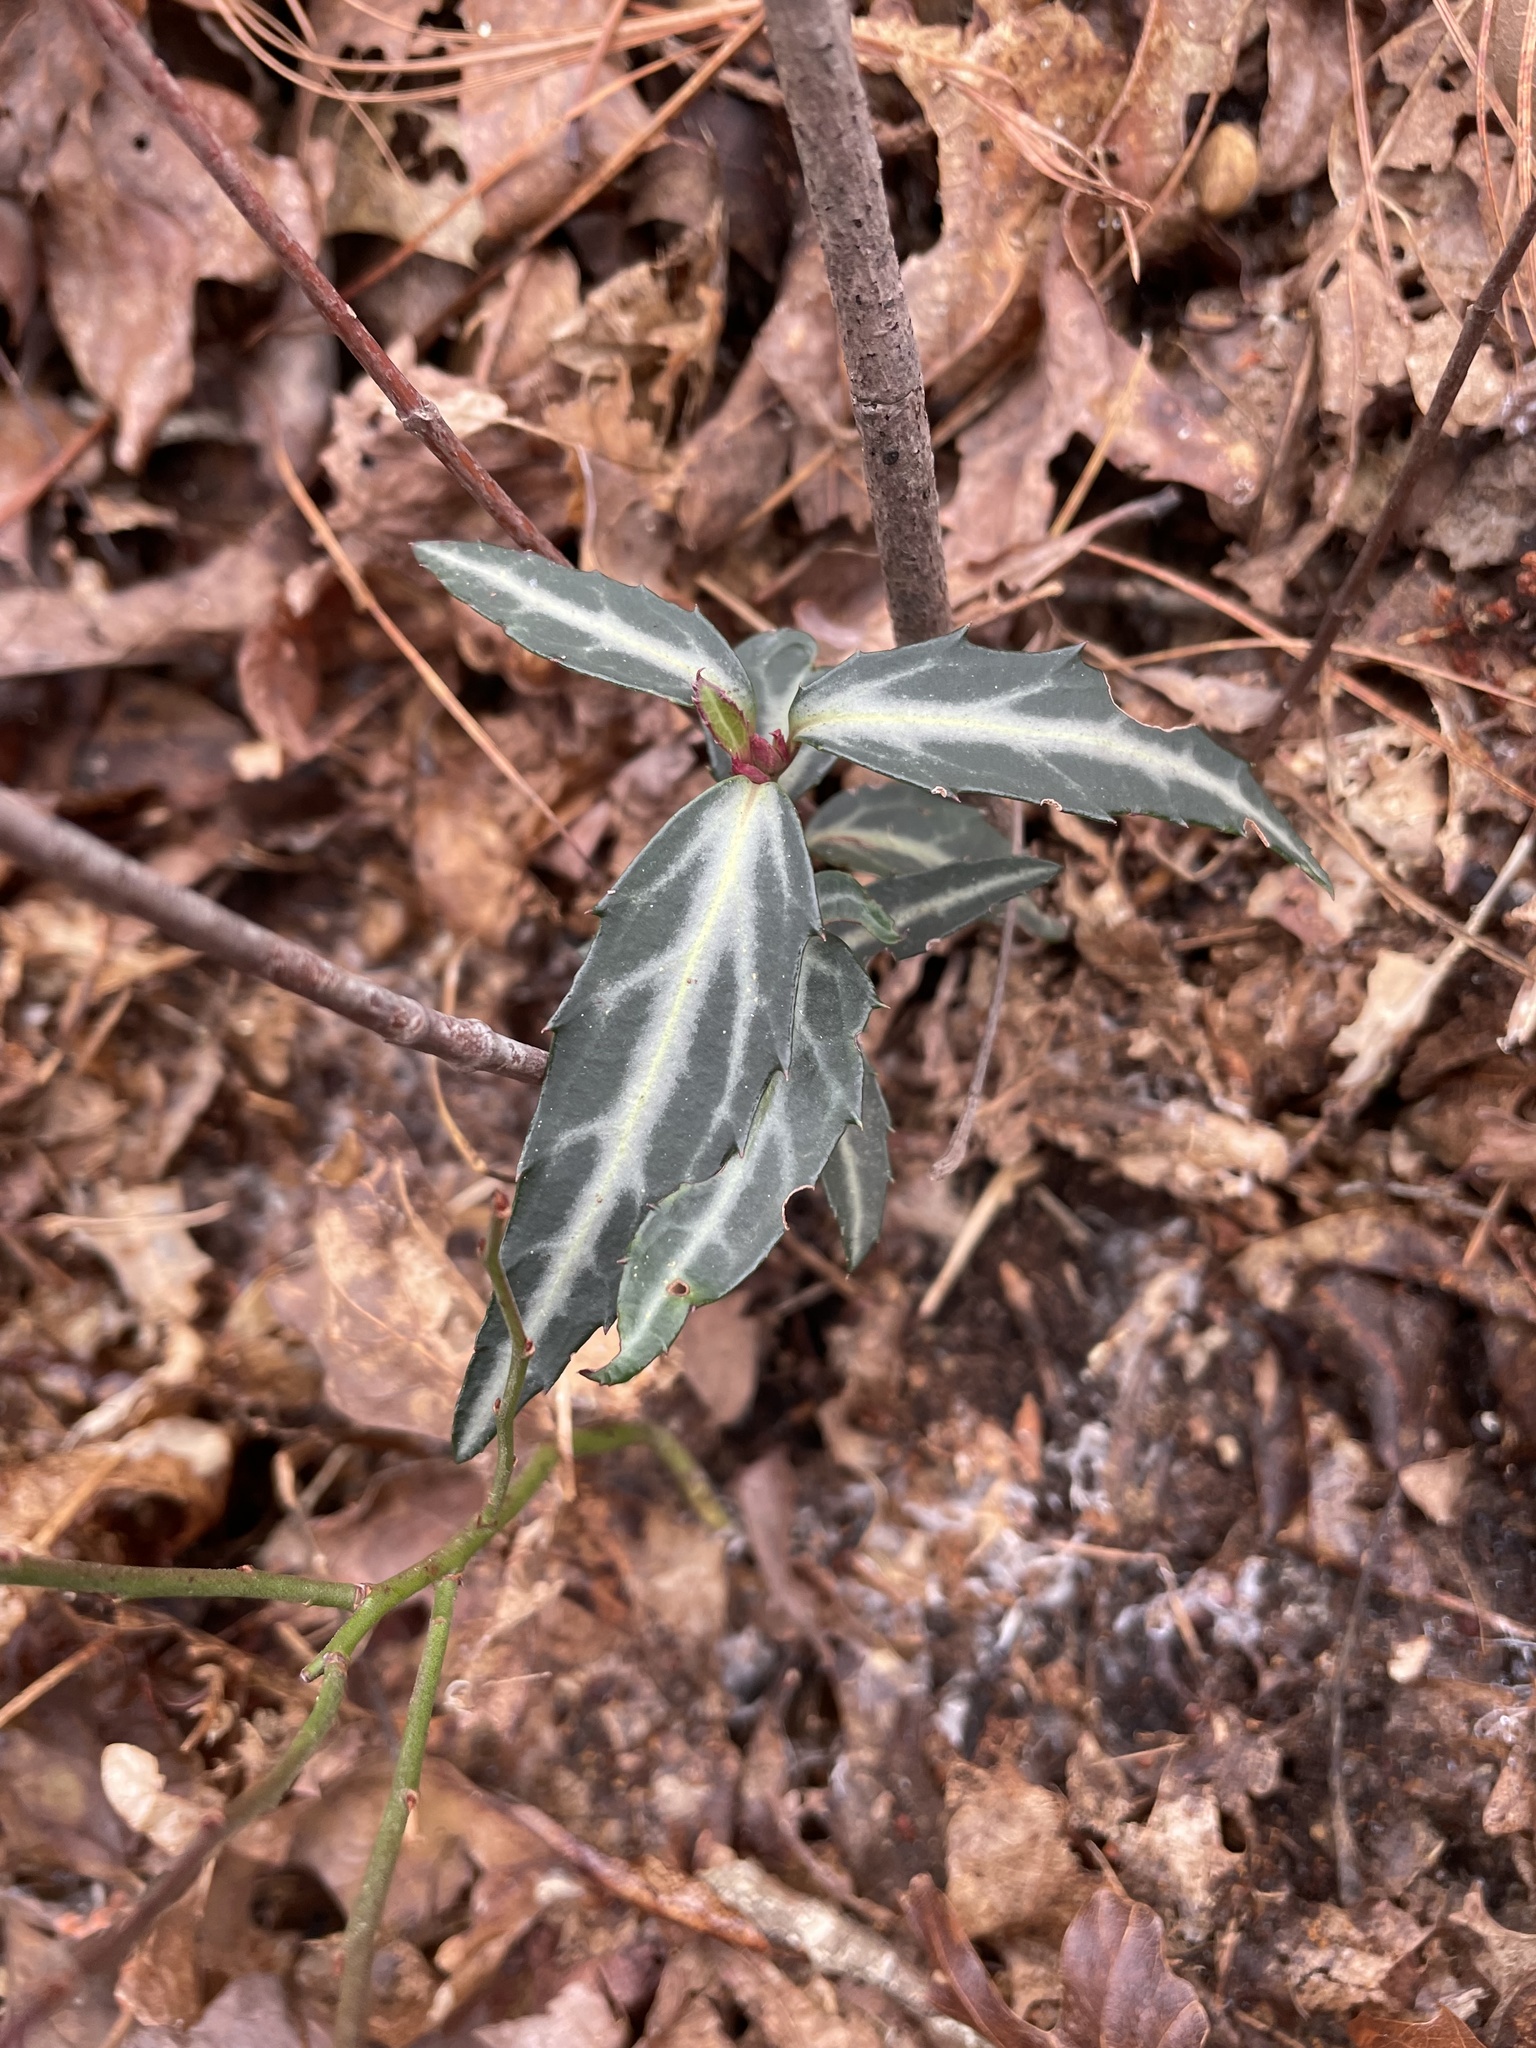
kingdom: Plantae
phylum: Tracheophyta
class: Magnoliopsida
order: Ericales
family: Ericaceae
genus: Chimaphila
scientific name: Chimaphila maculata
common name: Spotted pipsissewa
